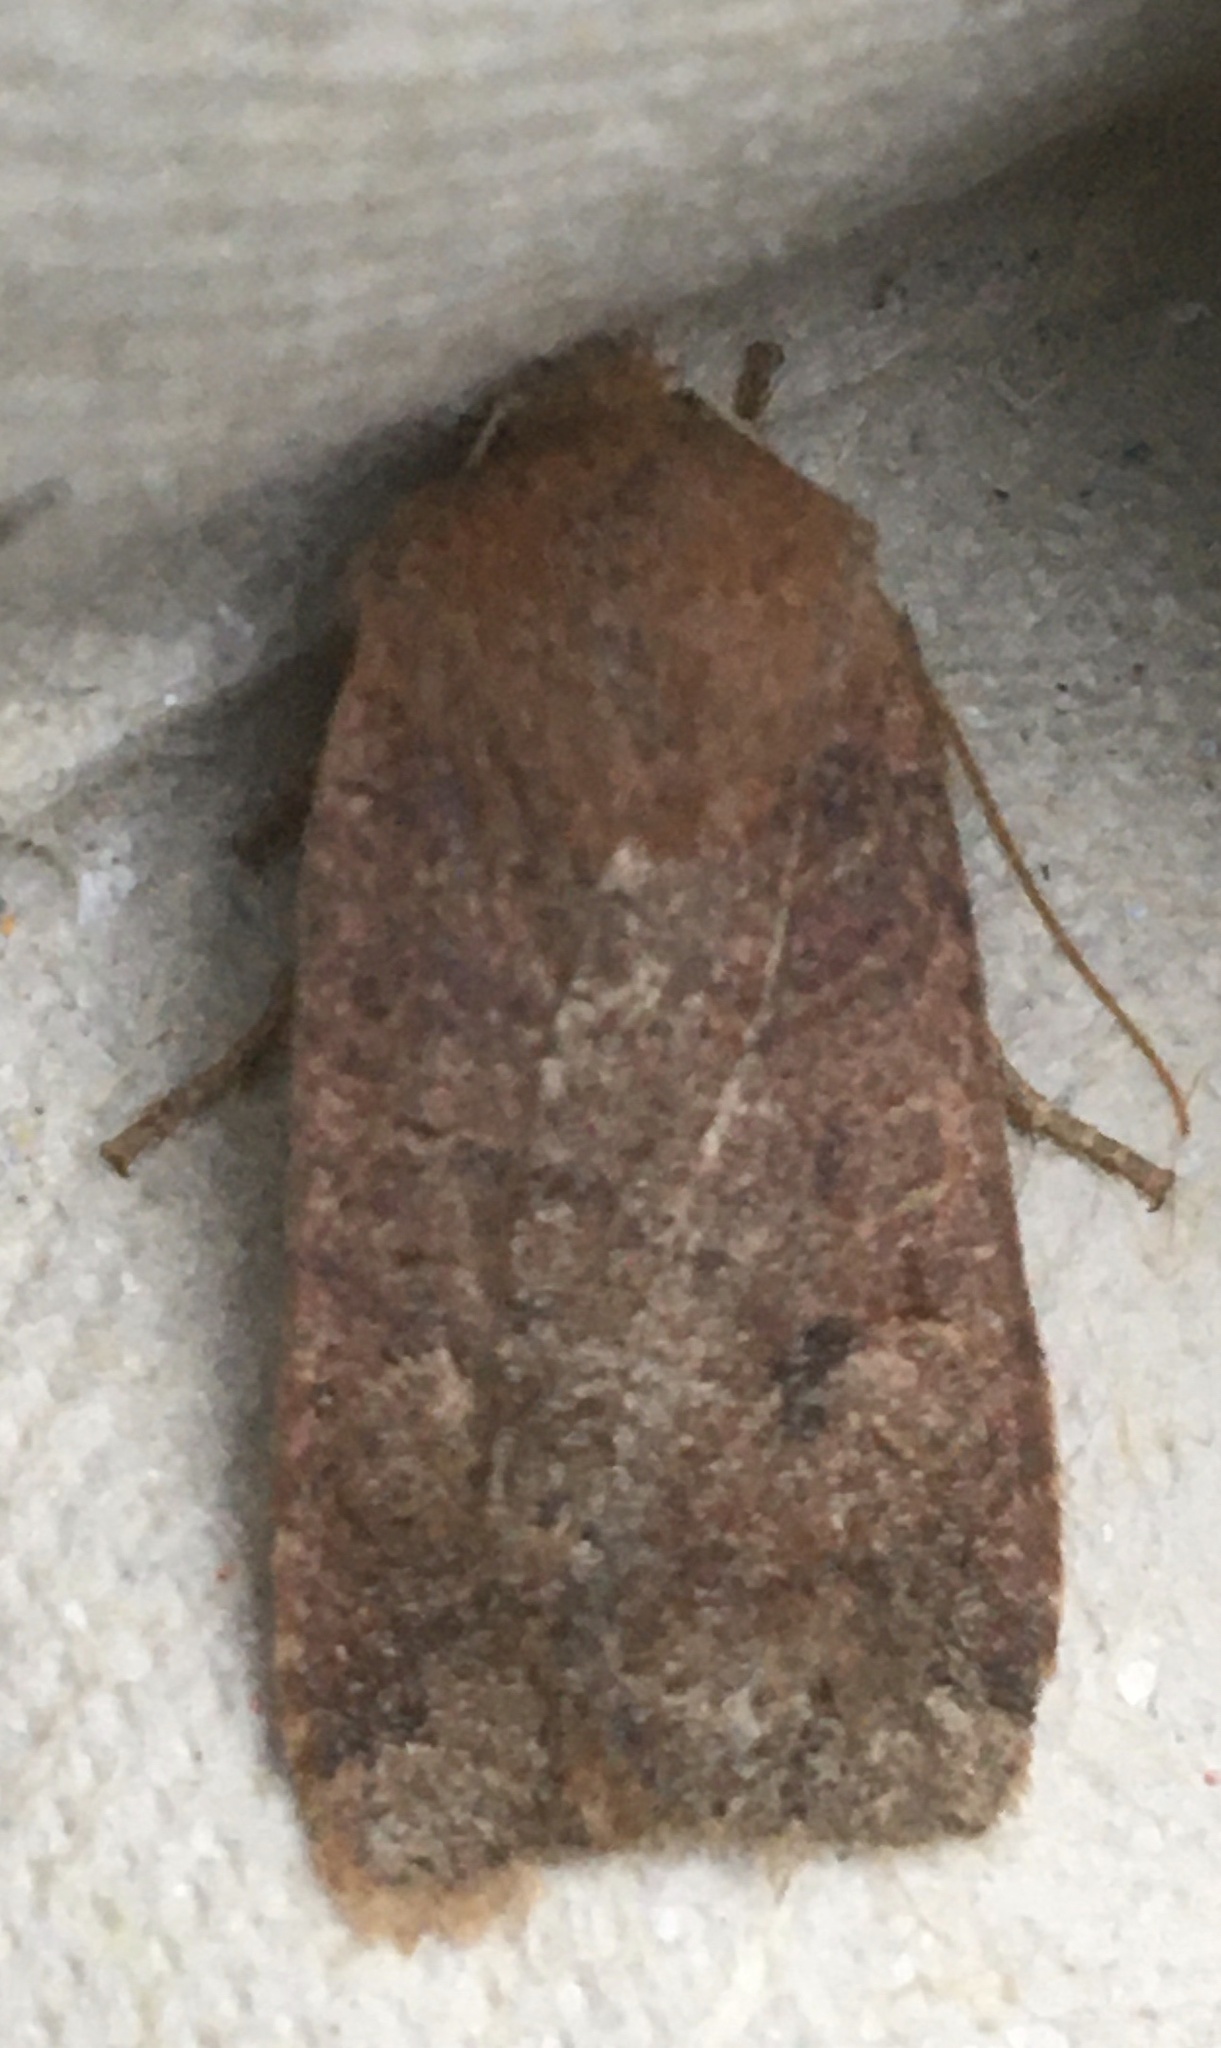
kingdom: Animalia
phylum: Arthropoda
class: Insecta
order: Lepidoptera
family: Noctuidae
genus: Conistra
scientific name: Conistra vaccinii
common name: Chestnut
